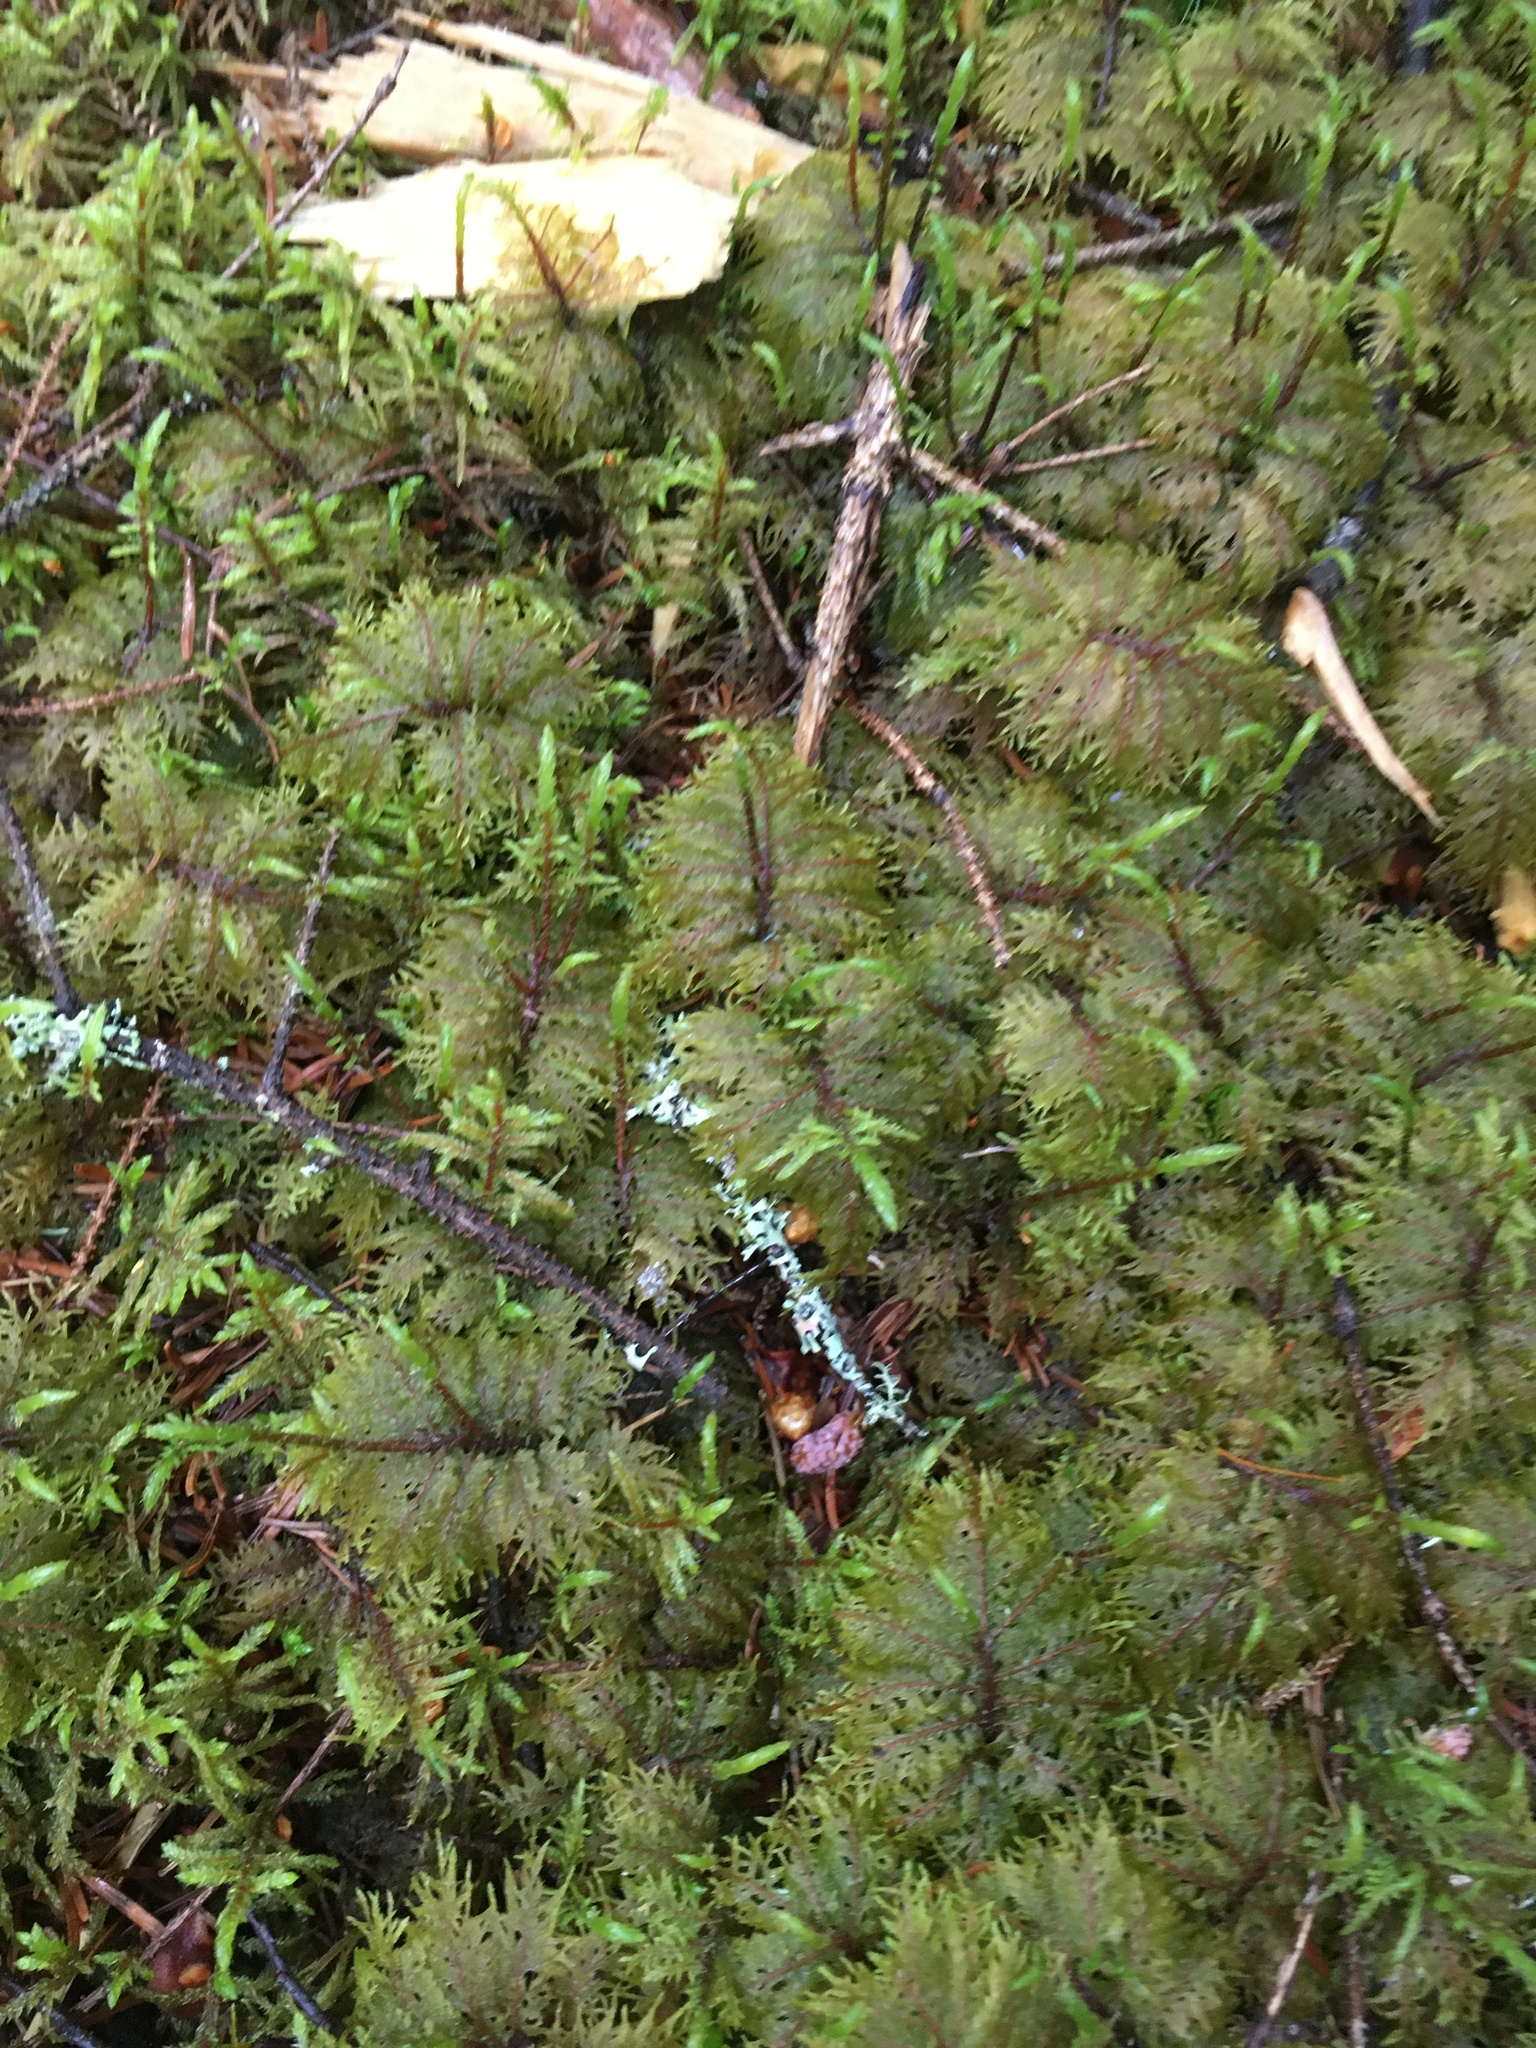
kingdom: Plantae
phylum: Bryophyta
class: Bryopsida
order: Hypnales
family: Hylocomiaceae
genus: Hylocomium
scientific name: Hylocomium splendens
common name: Stairstep moss
